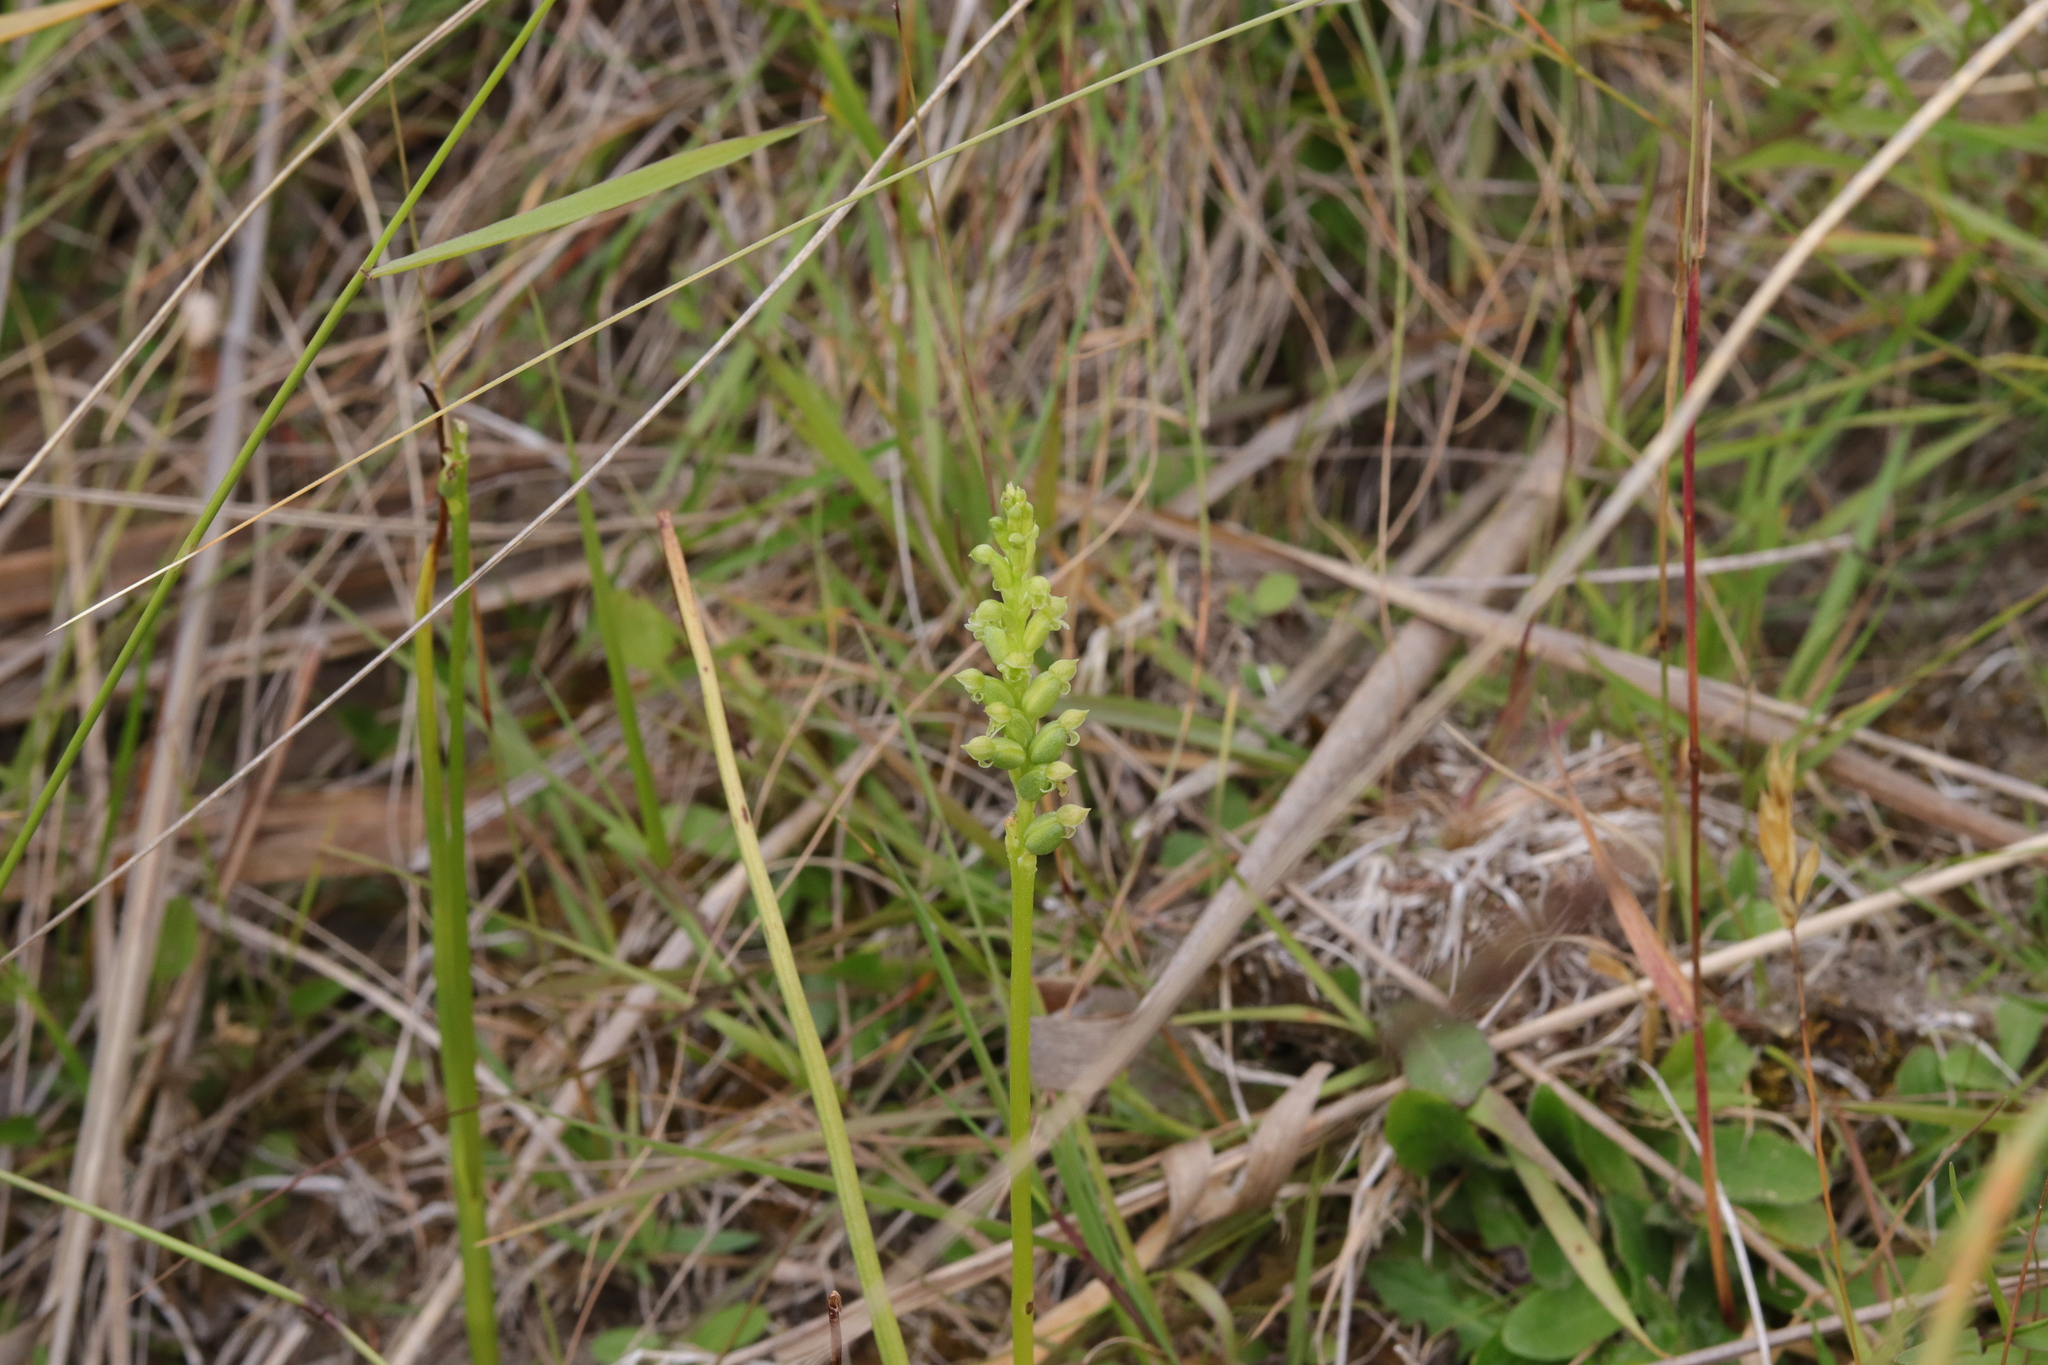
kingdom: Plantae
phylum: Tracheophyta
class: Liliopsida
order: Asparagales
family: Orchidaceae
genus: Microtis
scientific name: Microtis unifolia
